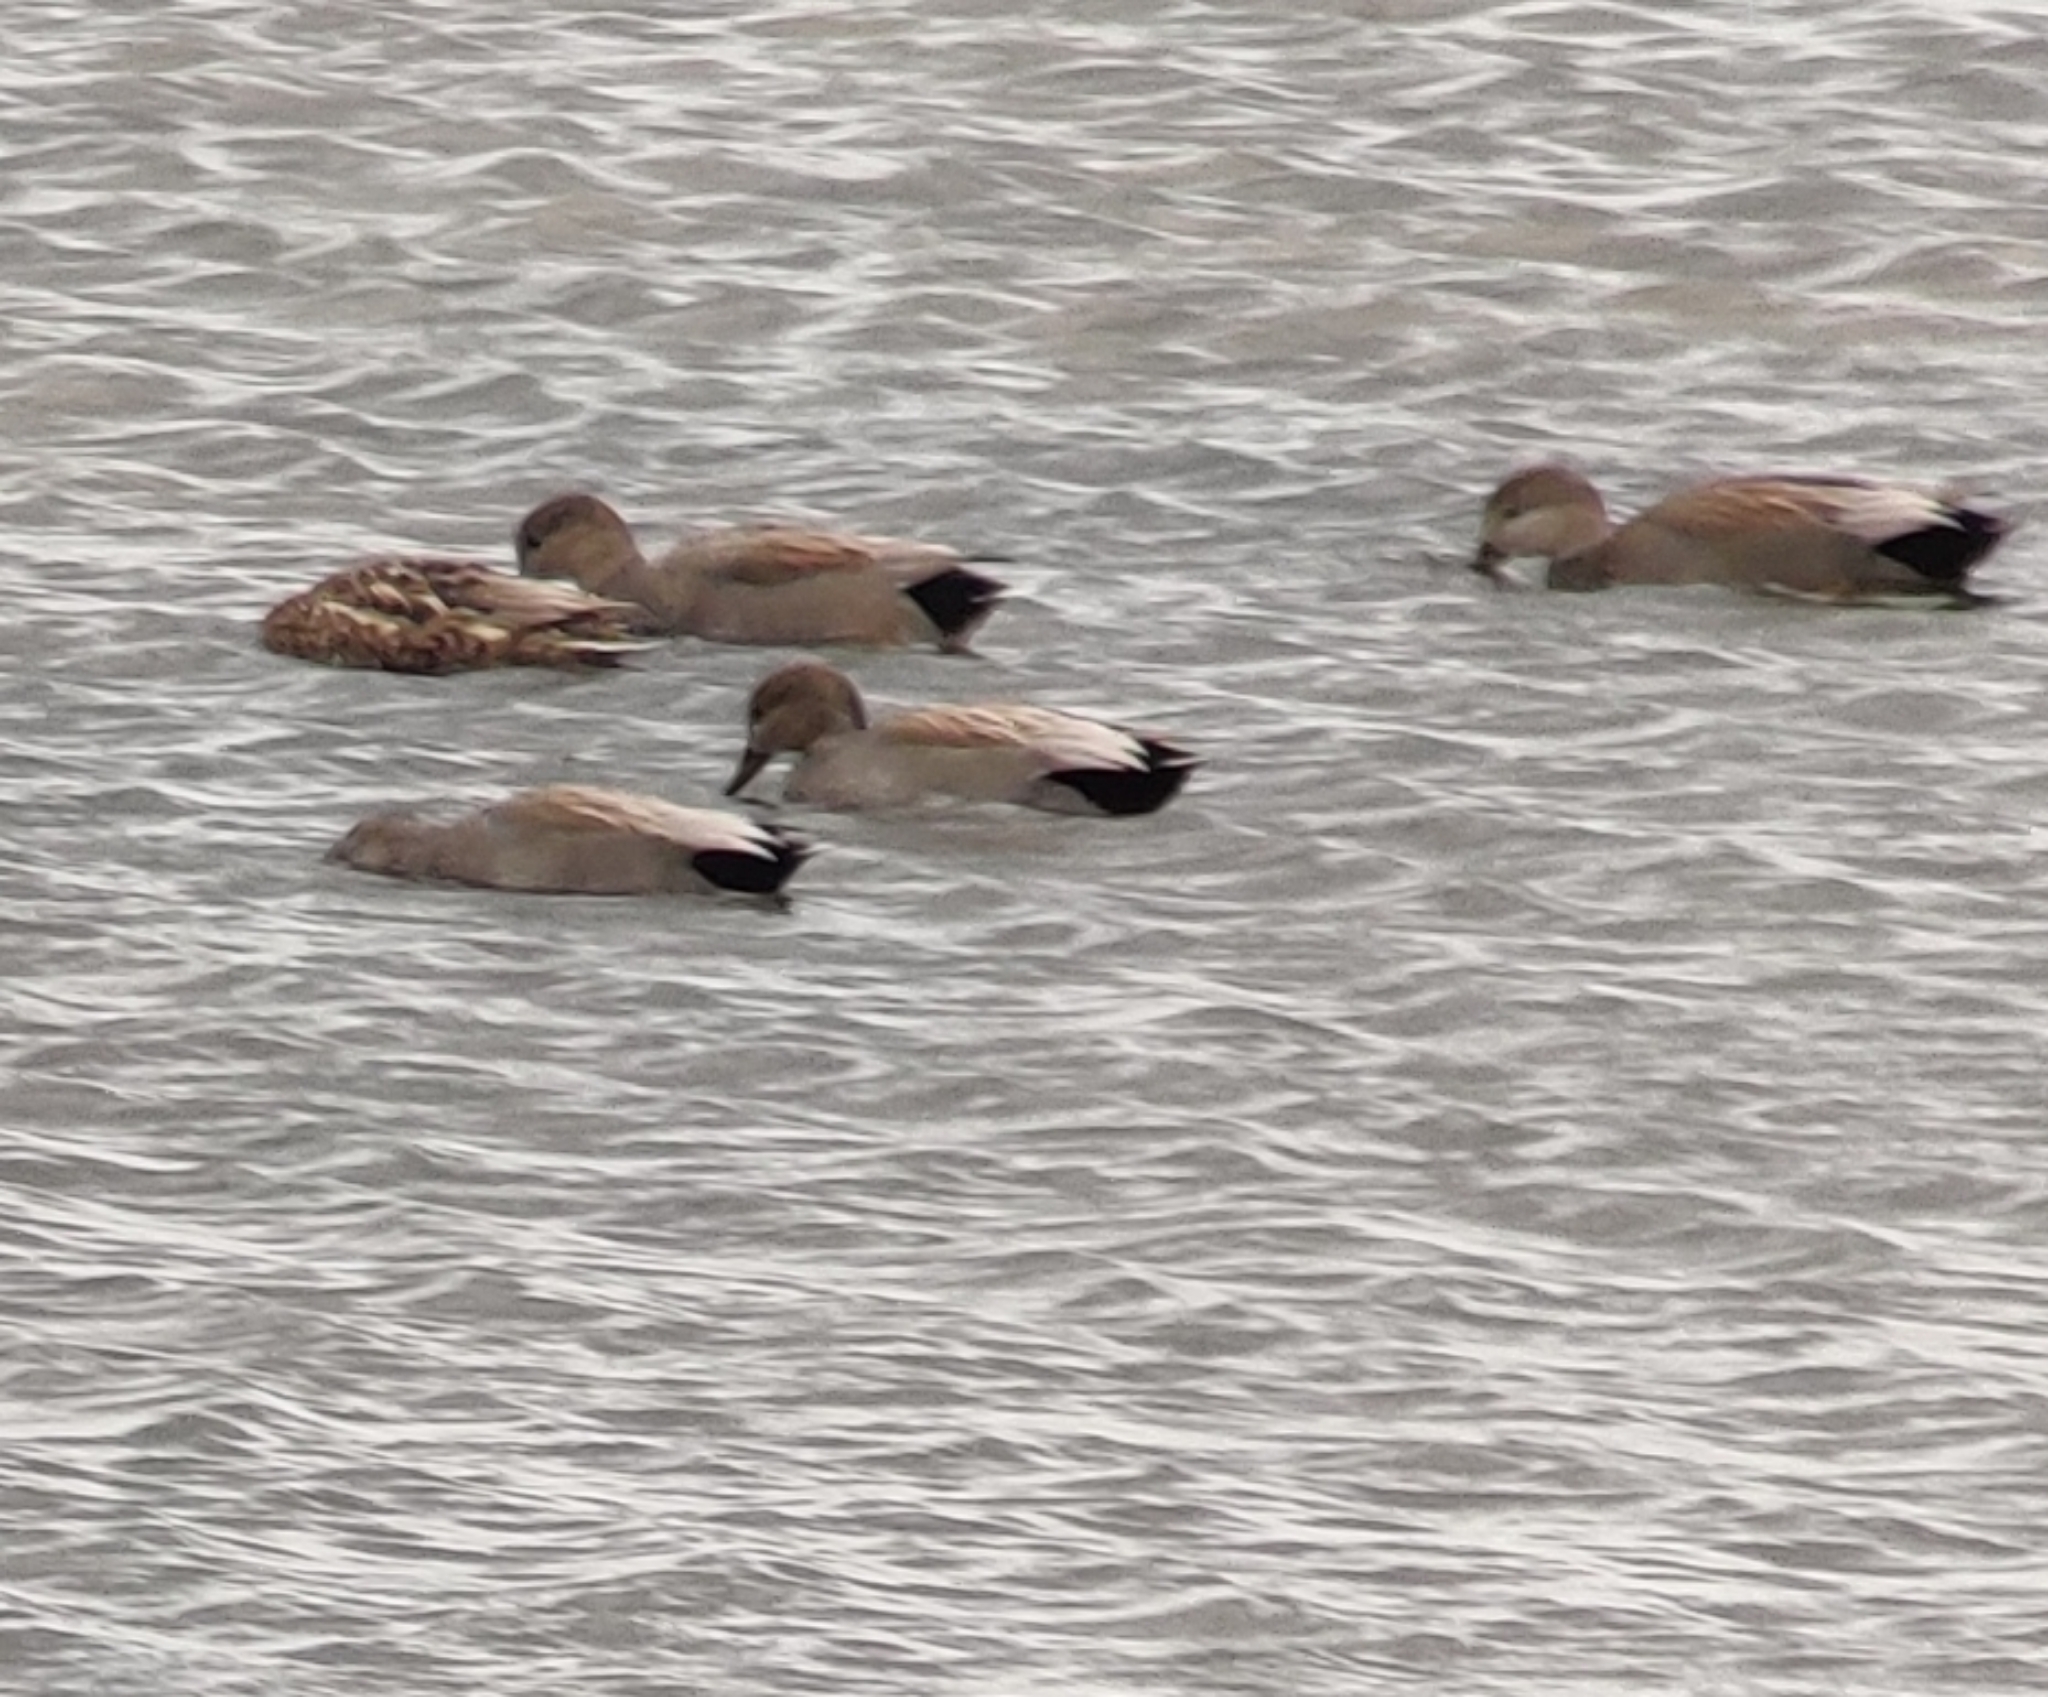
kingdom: Animalia
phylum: Chordata
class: Aves
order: Anseriformes
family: Anatidae
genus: Mareca
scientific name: Mareca strepera
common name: Gadwall
